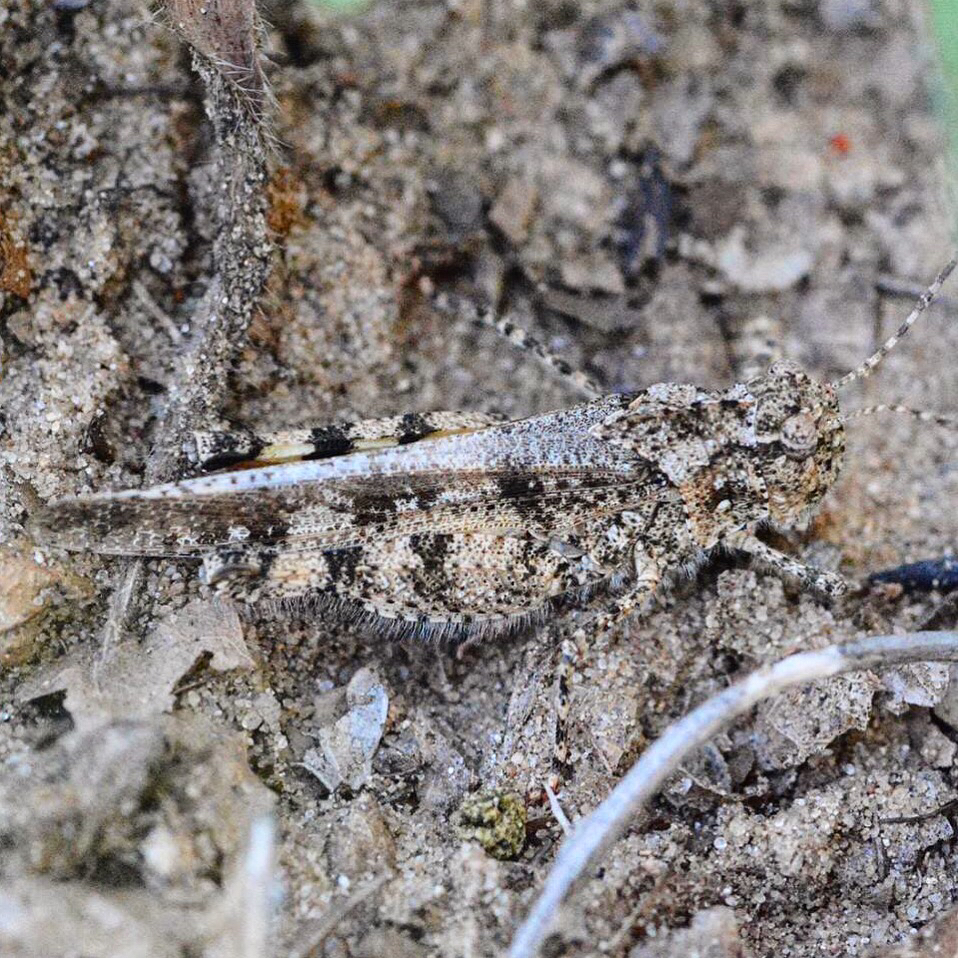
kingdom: Animalia
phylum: Arthropoda
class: Insecta
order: Orthoptera
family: Acrididae
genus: Spharagemon
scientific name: Spharagemon collare
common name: Mottled sand grasshopper
